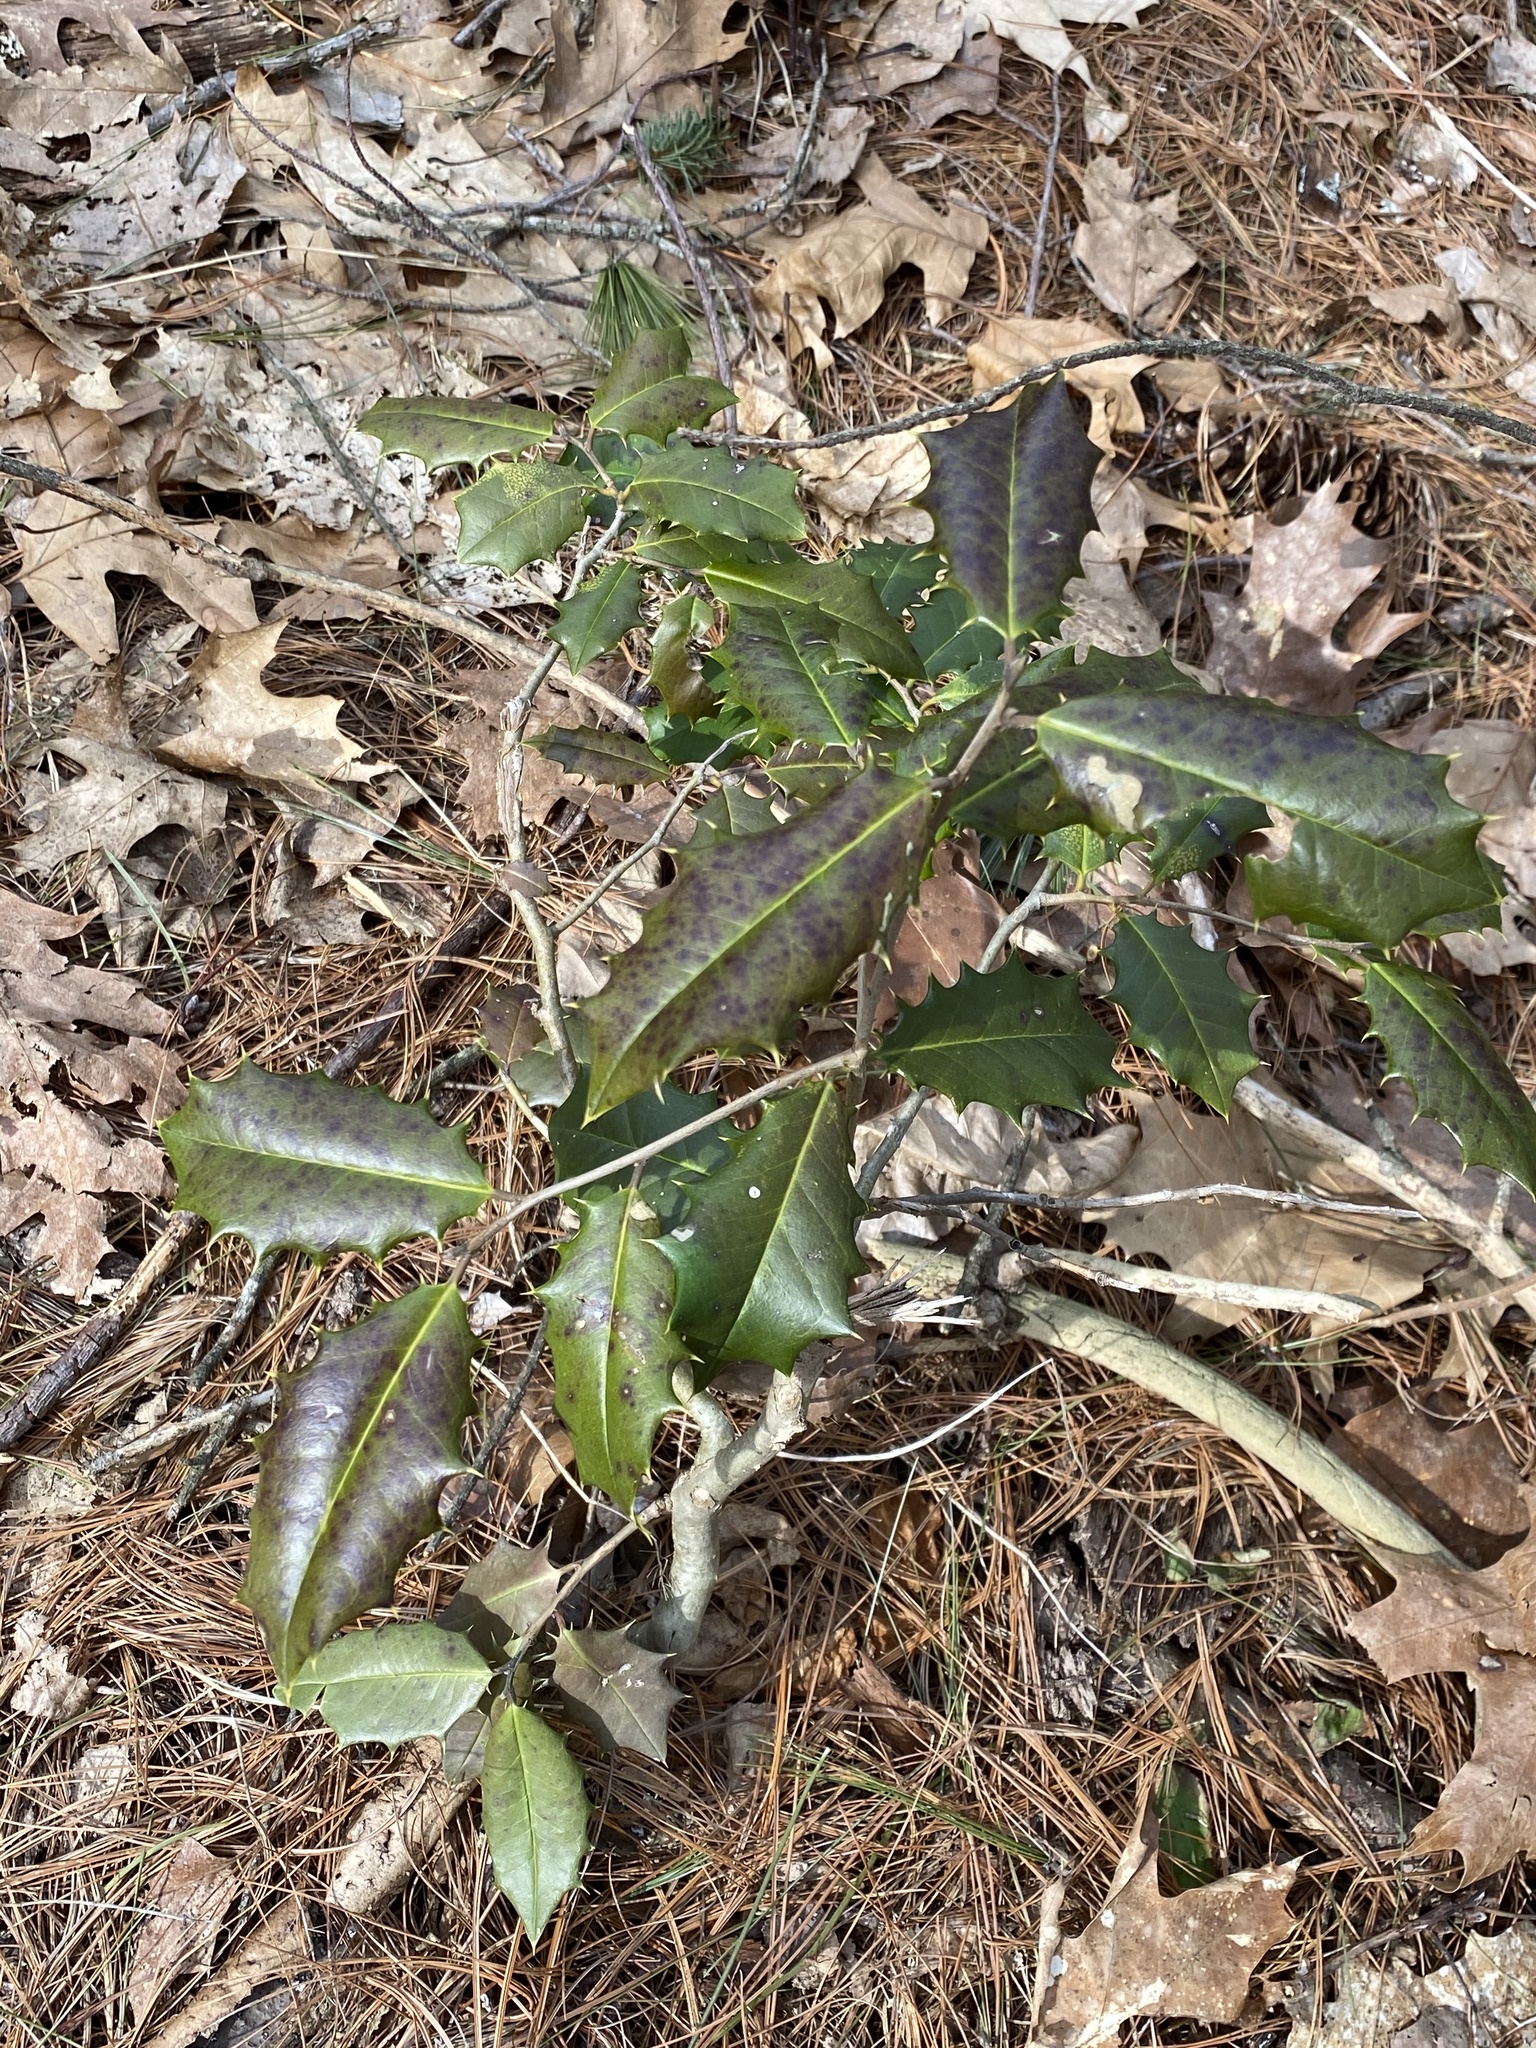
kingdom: Plantae
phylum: Tracheophyta
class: Magnoliopsida
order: Aquifoliales
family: Aquifoliaceae
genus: Ilex
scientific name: Ilex opaca
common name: American holly
